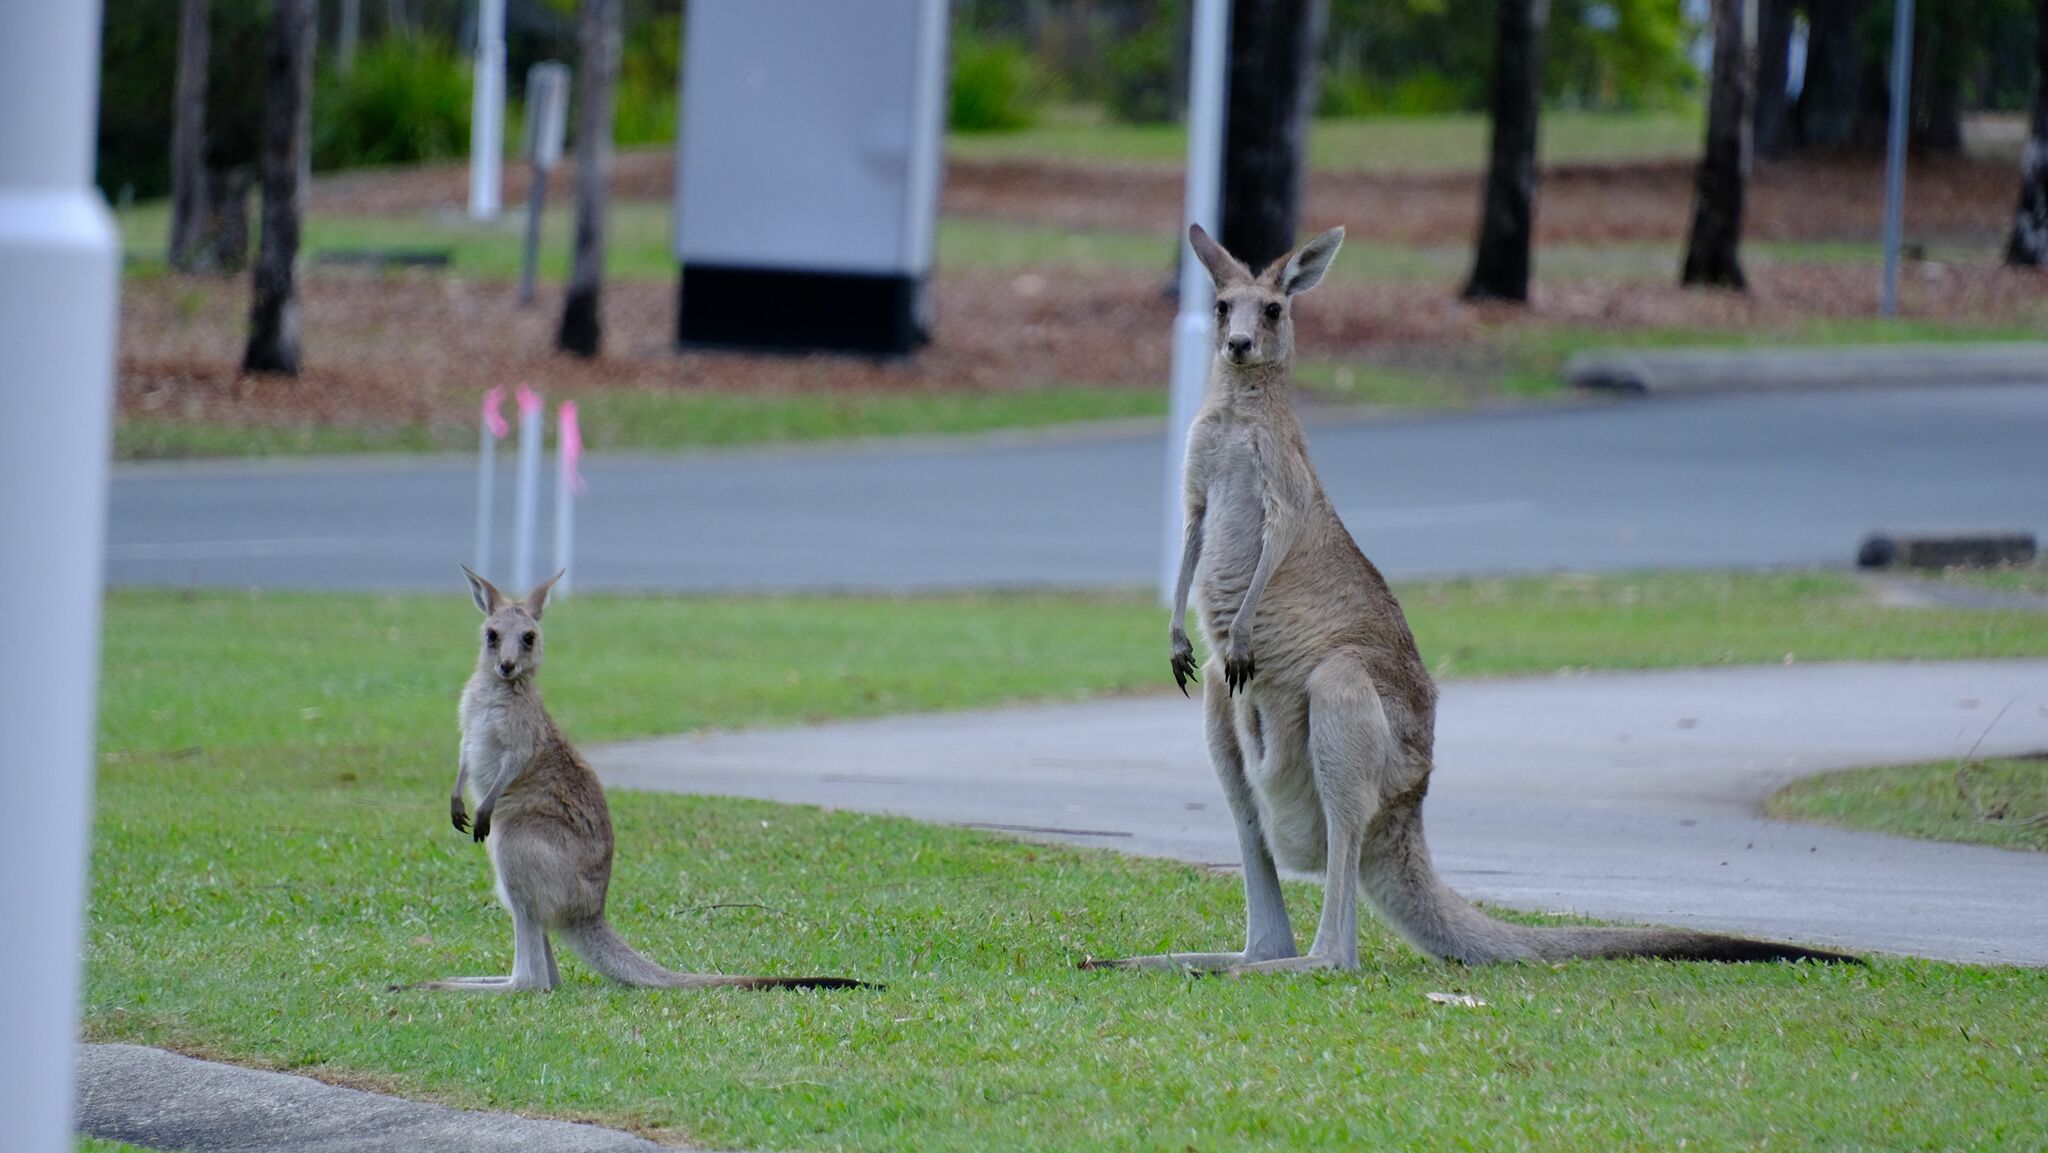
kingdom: Animalia
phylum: Chordata
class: Mammalia
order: Diprotodontia
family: Macropodidae
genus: Macropus
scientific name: Macropus giganteus
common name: Eastern grey kangaroo
